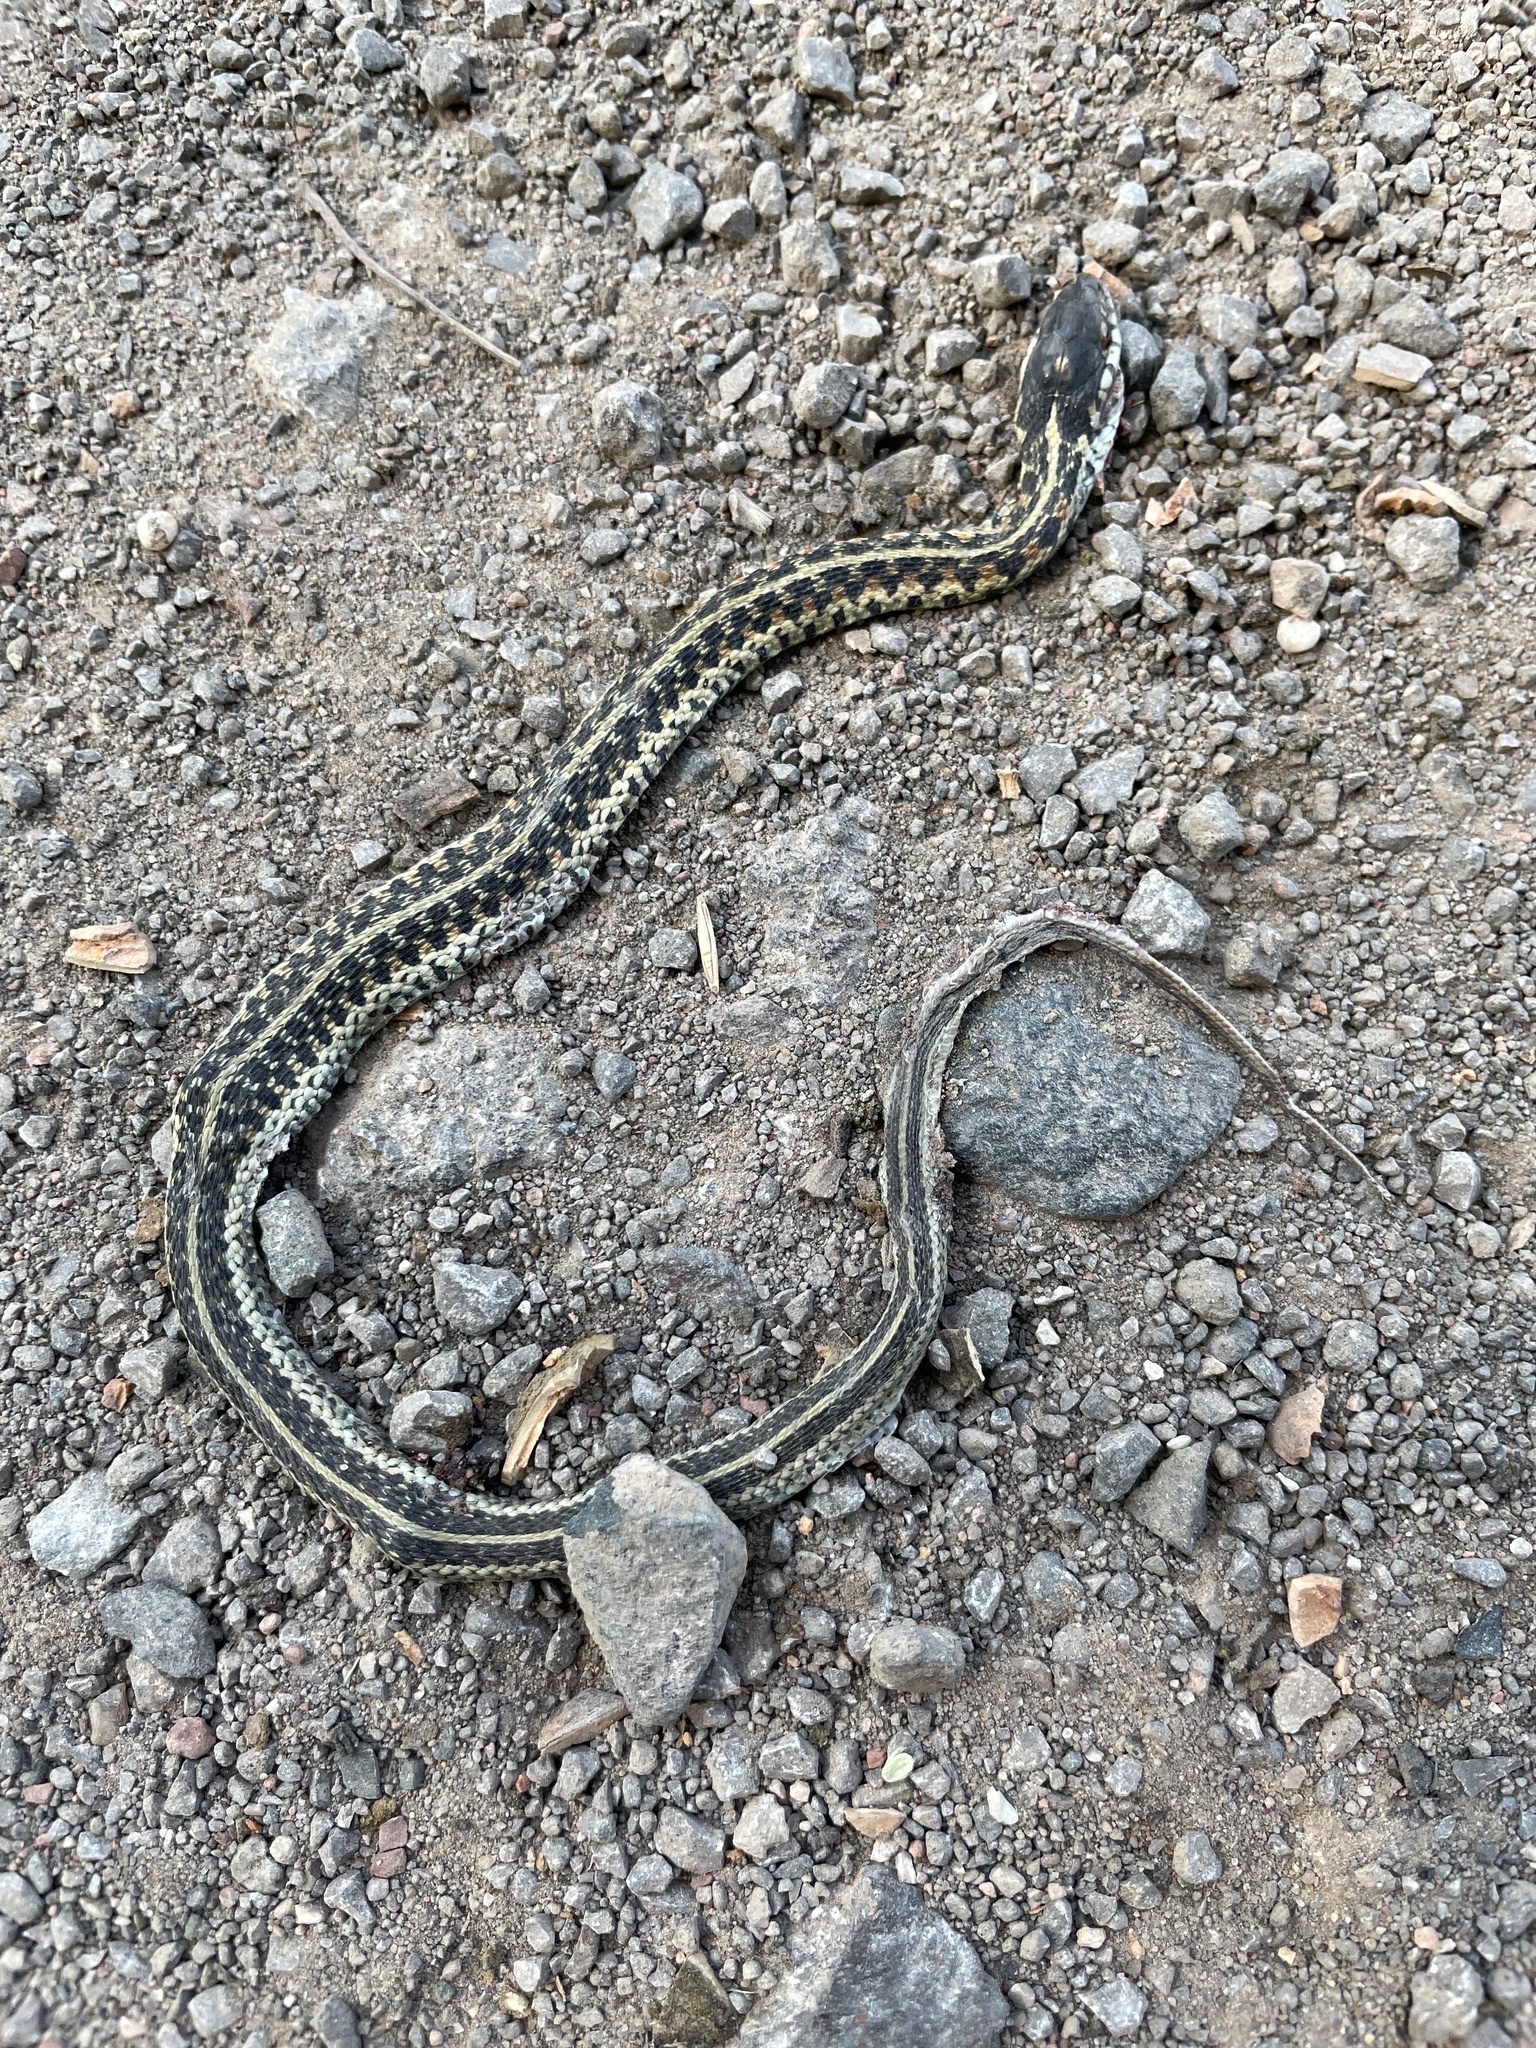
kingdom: Animalia
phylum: Chordata
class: Squamata
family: Colubridae
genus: Thamnophis
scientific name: Thamnophis sirtalis
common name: Common garter snake
